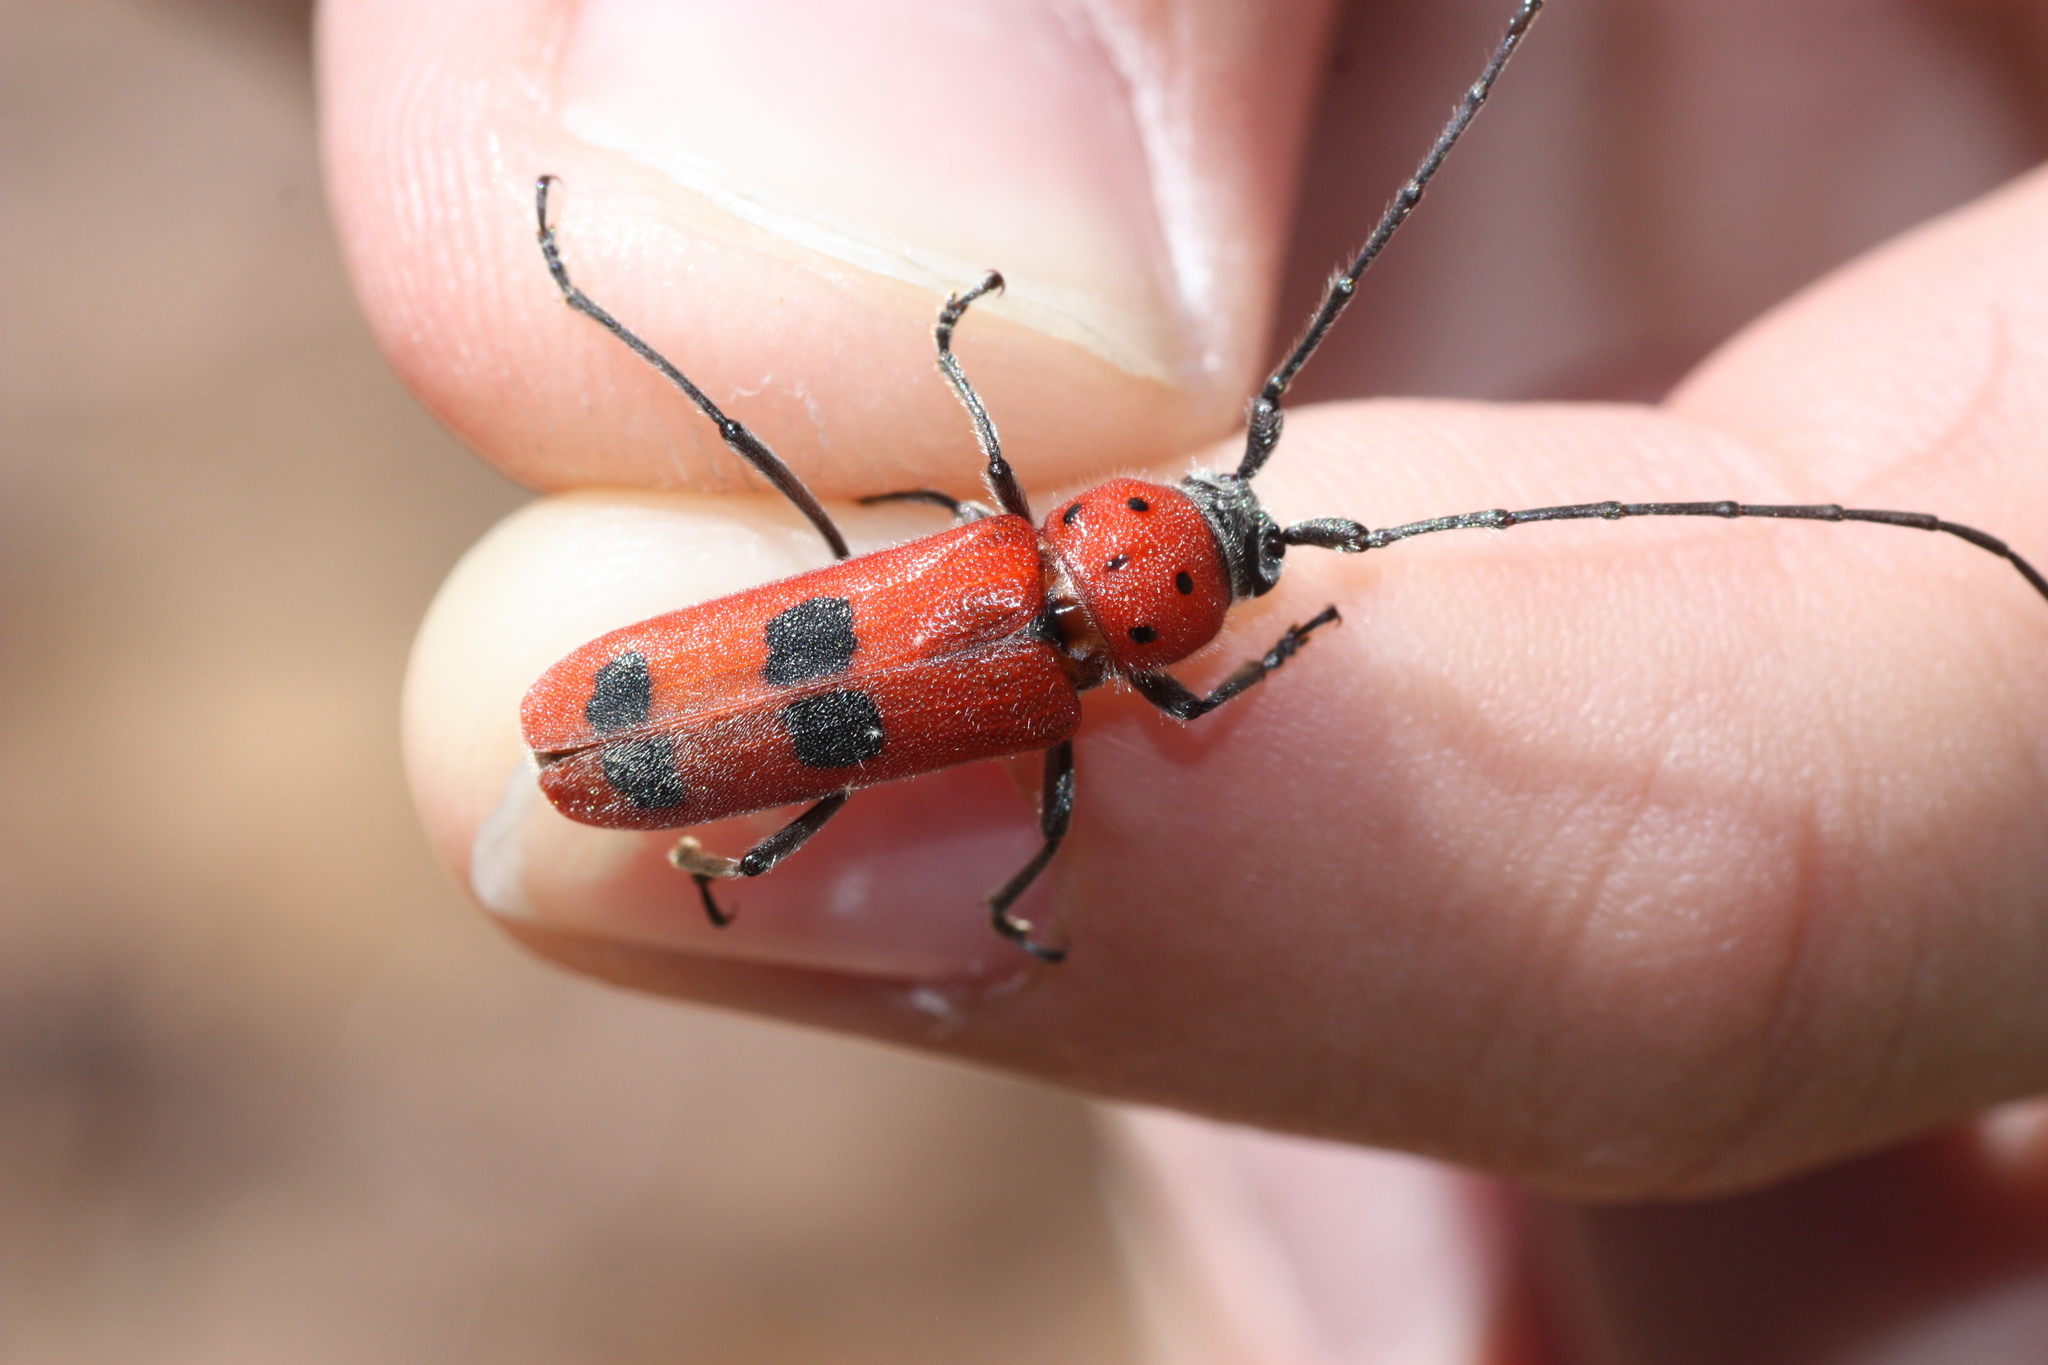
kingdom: Animalia
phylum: Arthropoda
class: Insecta
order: Coleoptera
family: Cerambycidae
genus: Tylosis
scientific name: Tylosis maculatus
